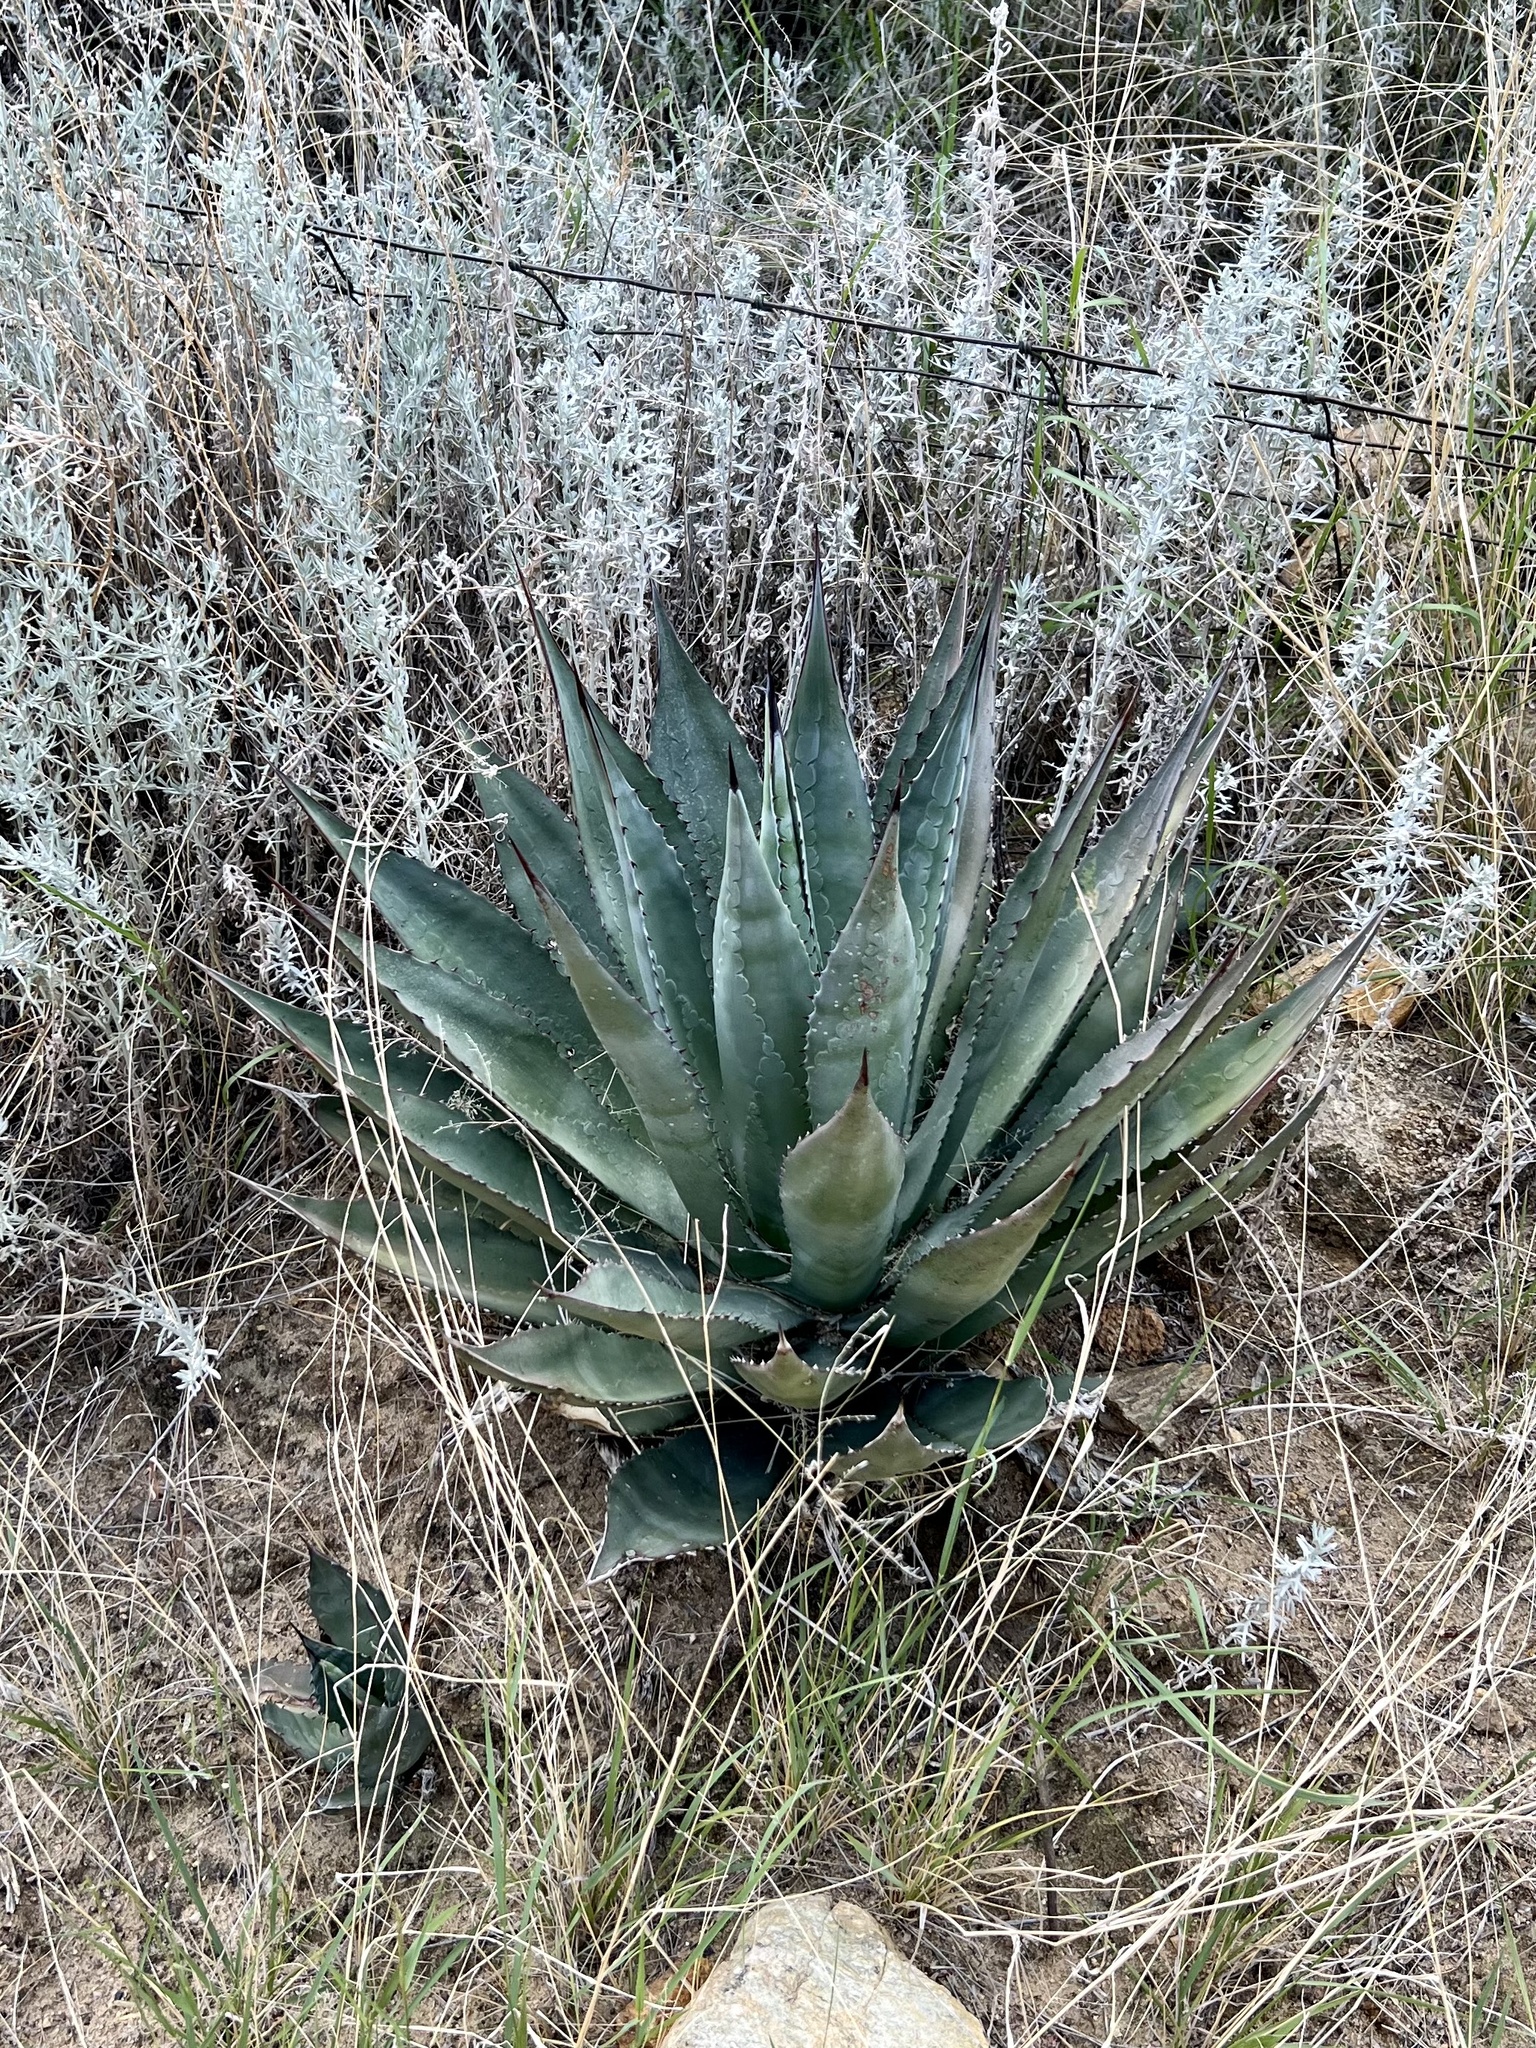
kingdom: Plantae
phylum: Tracheophyta
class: Liliopsida
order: Asparagales
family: Asparagaceae
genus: Agave
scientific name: Agave palmeri
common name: Palmer agave
